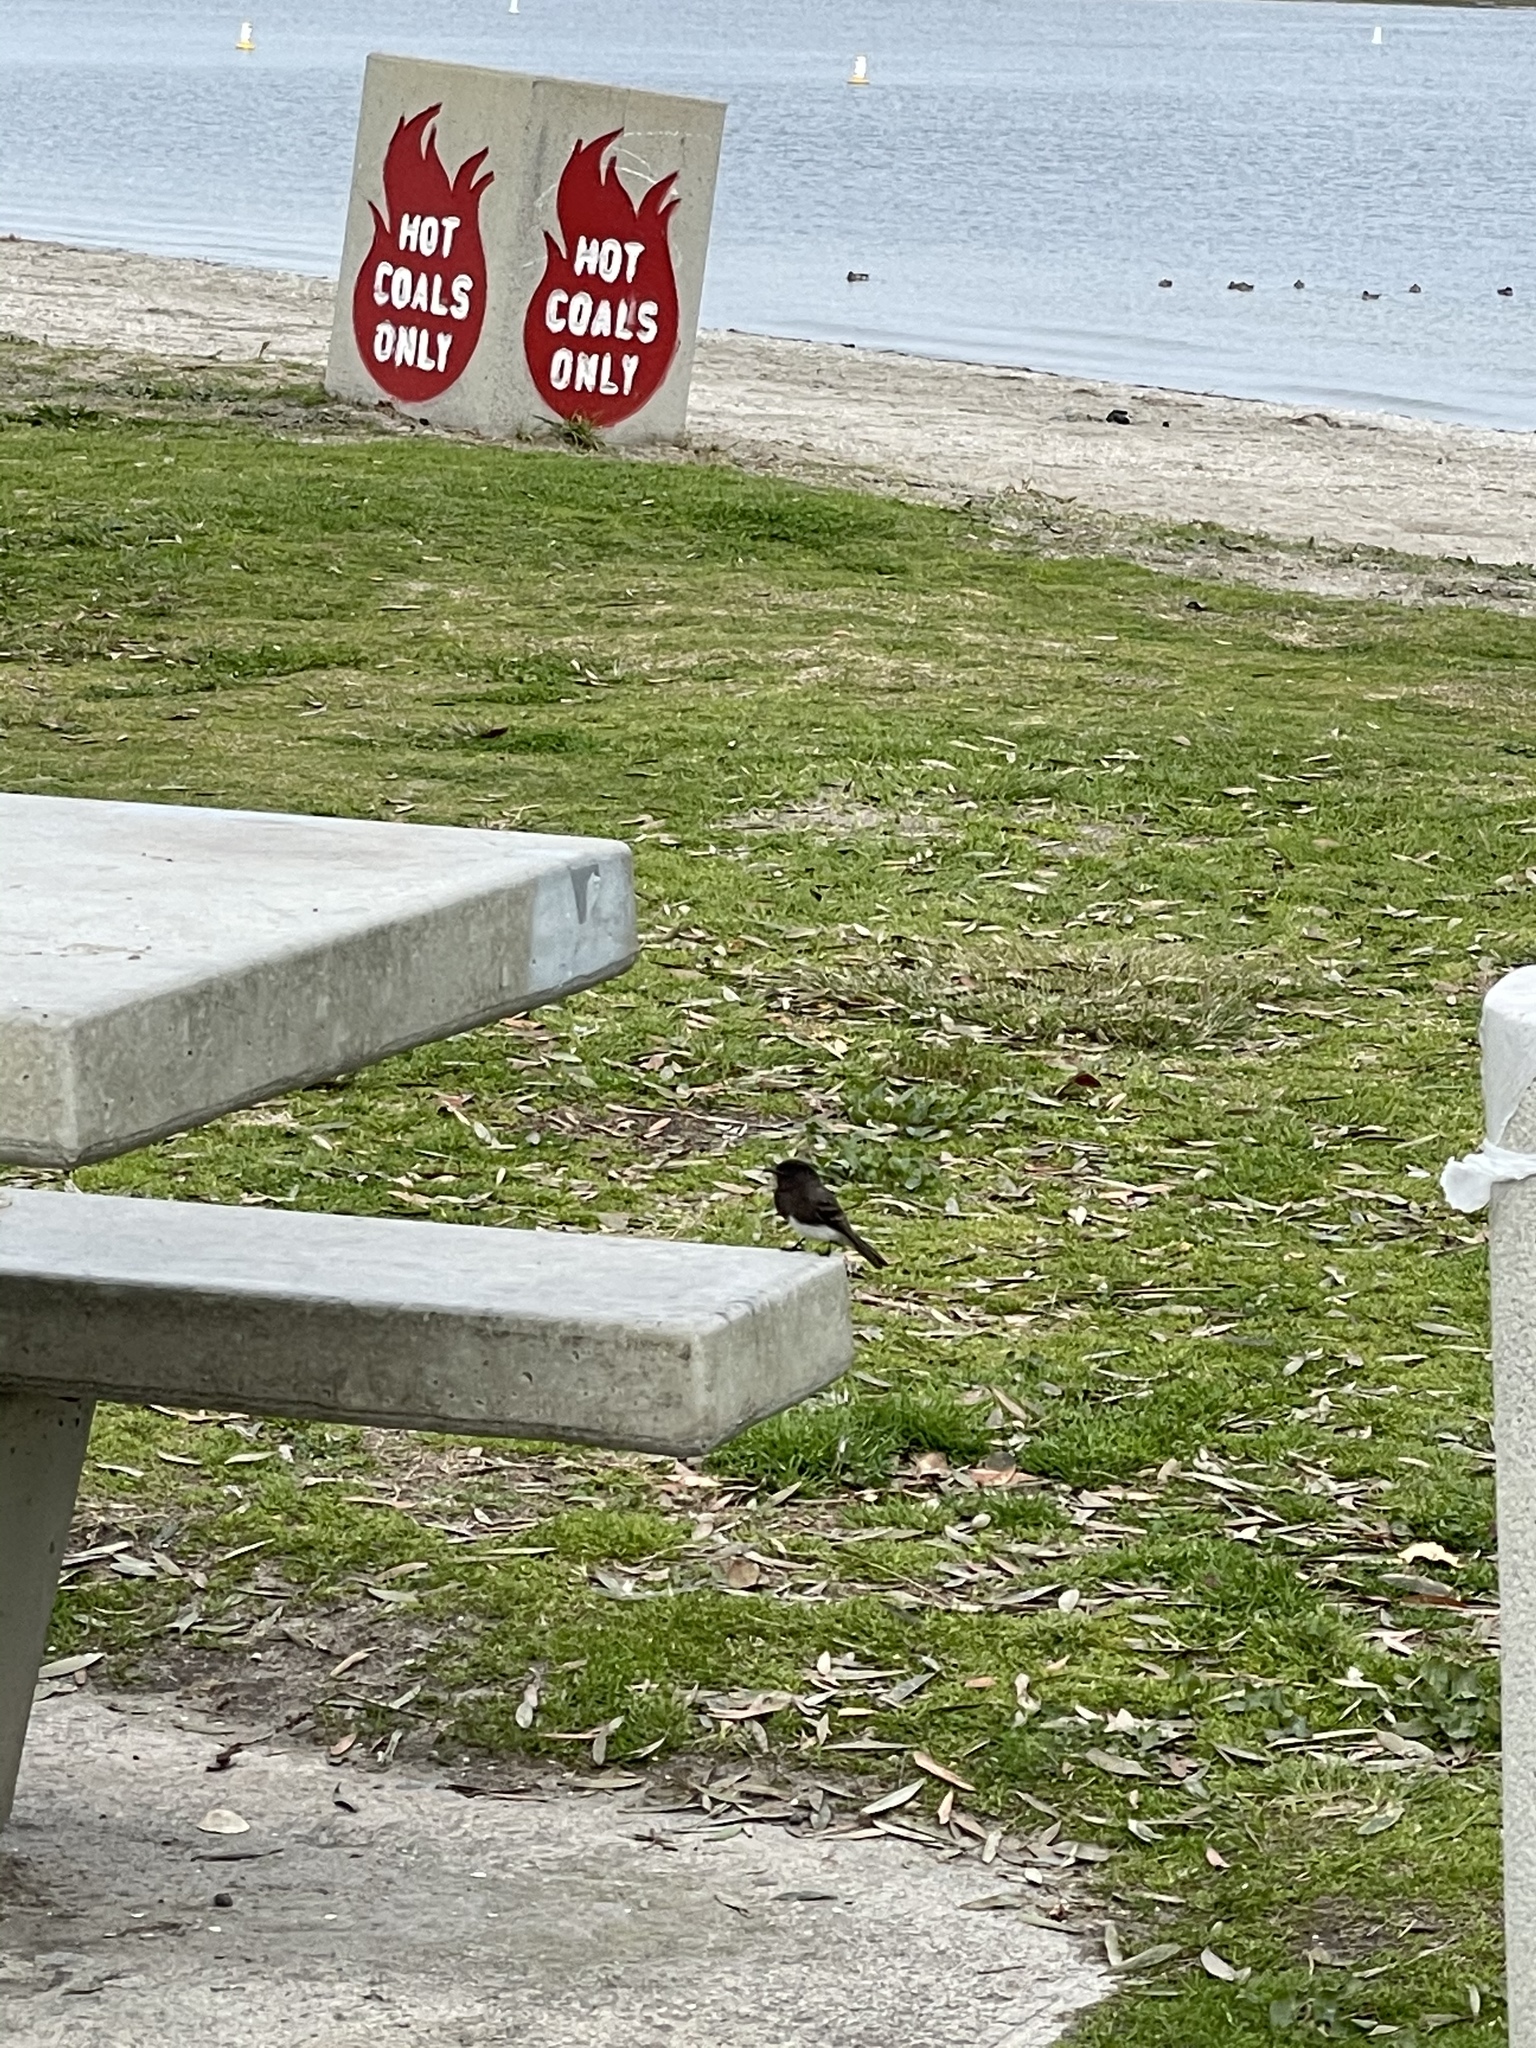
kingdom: Animalia
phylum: Chordata
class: Aves
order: Passeriformes
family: Tyrannidae
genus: Sayornis
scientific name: Sayornis nigricans
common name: Black phoebe
